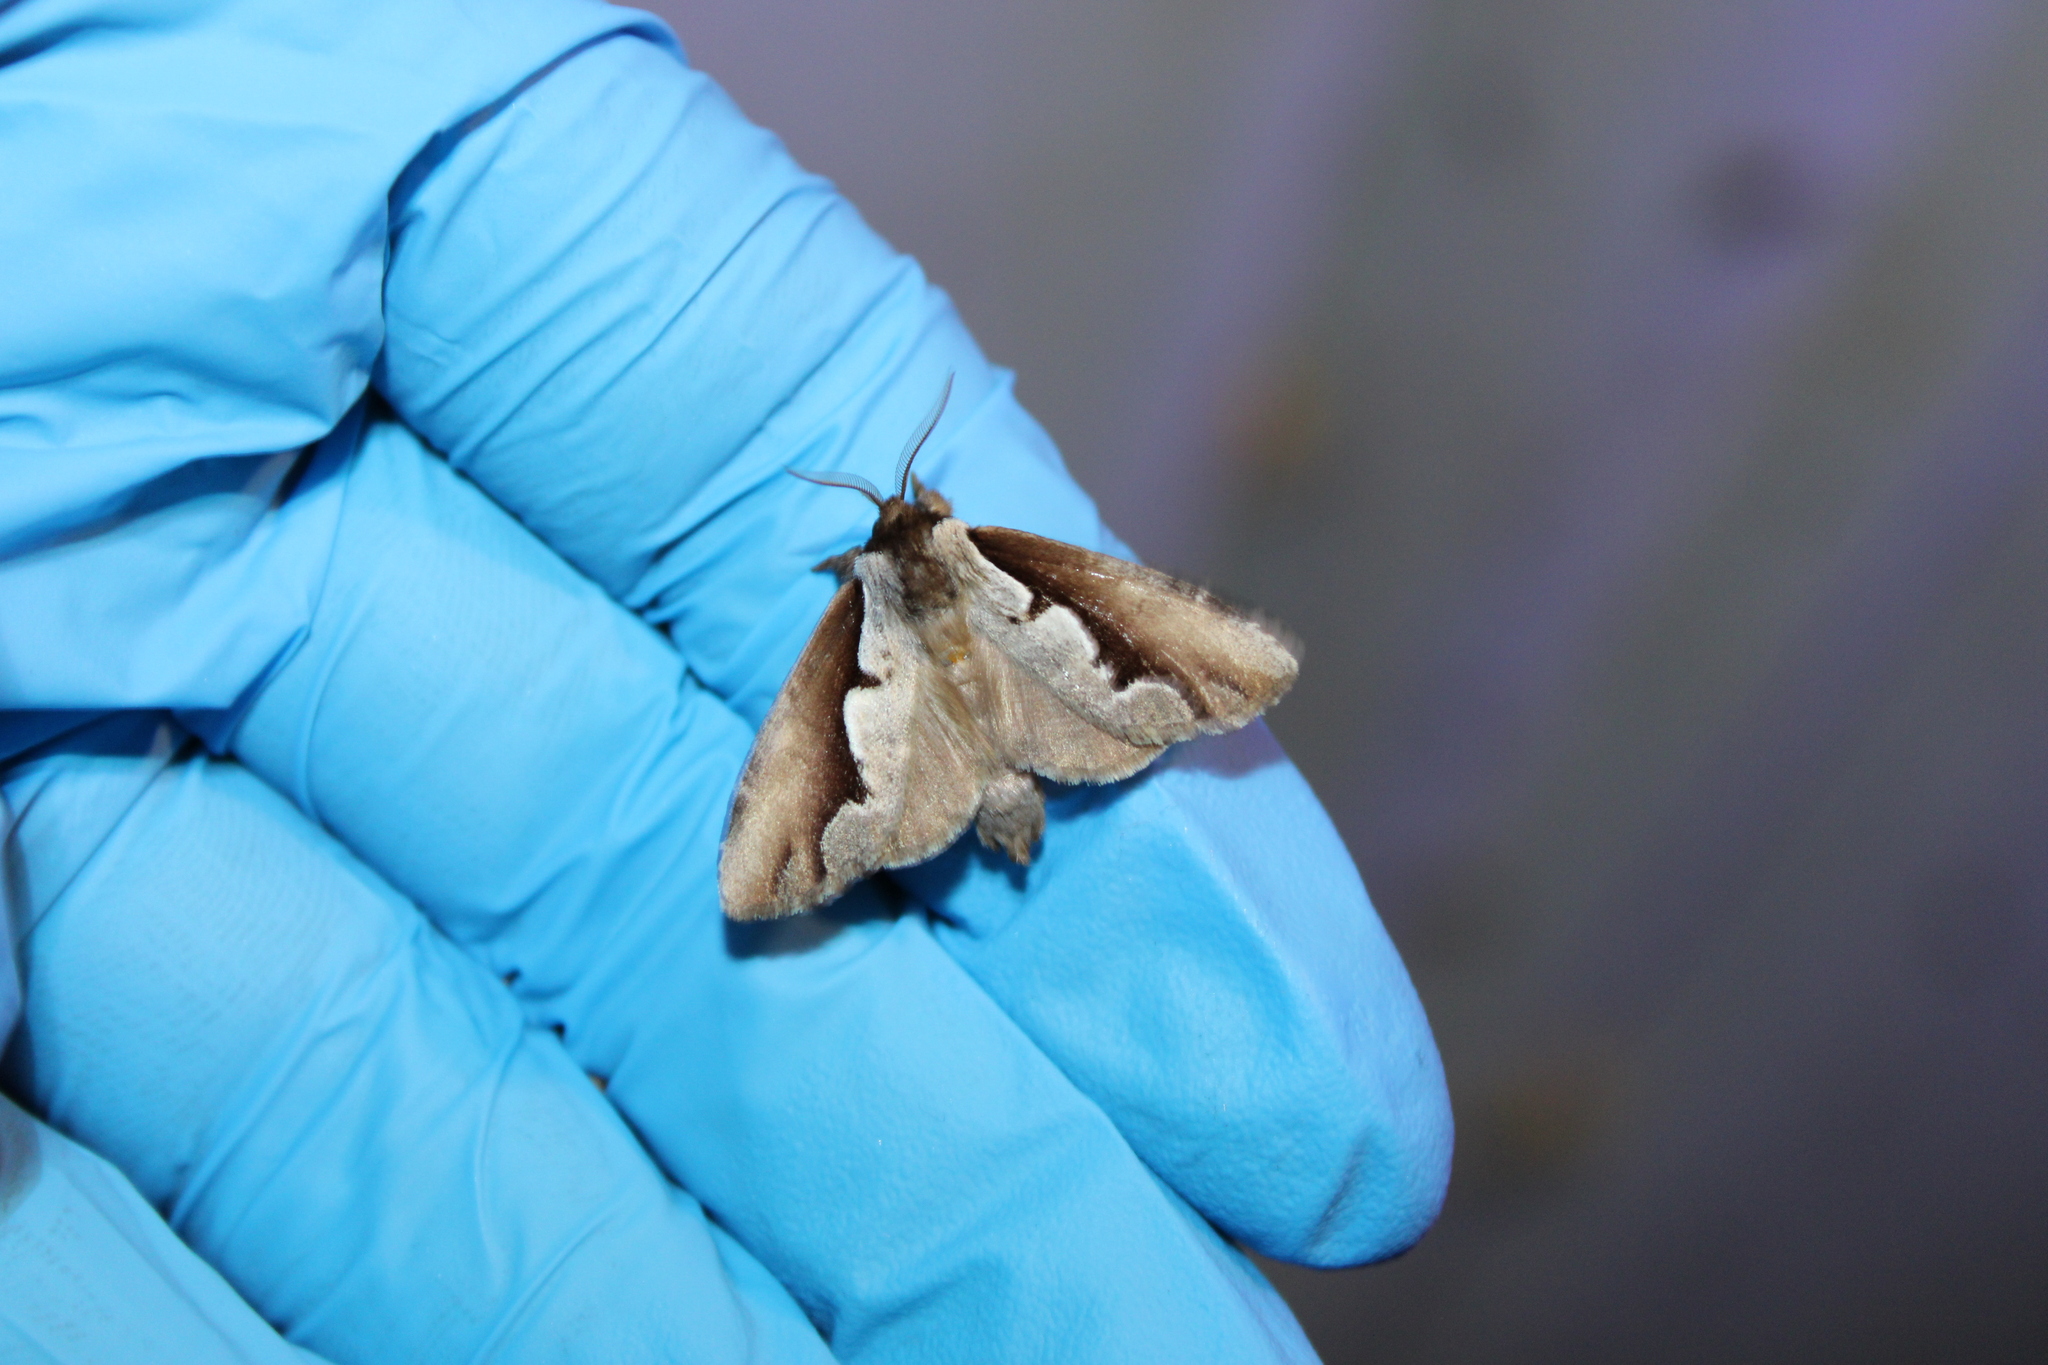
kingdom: Animalia
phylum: Arthropoda
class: Insecta
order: Lepidoptera
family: Notodontidae
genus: Nerice
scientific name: Nerice bidentata
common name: Double-toothed prominent
